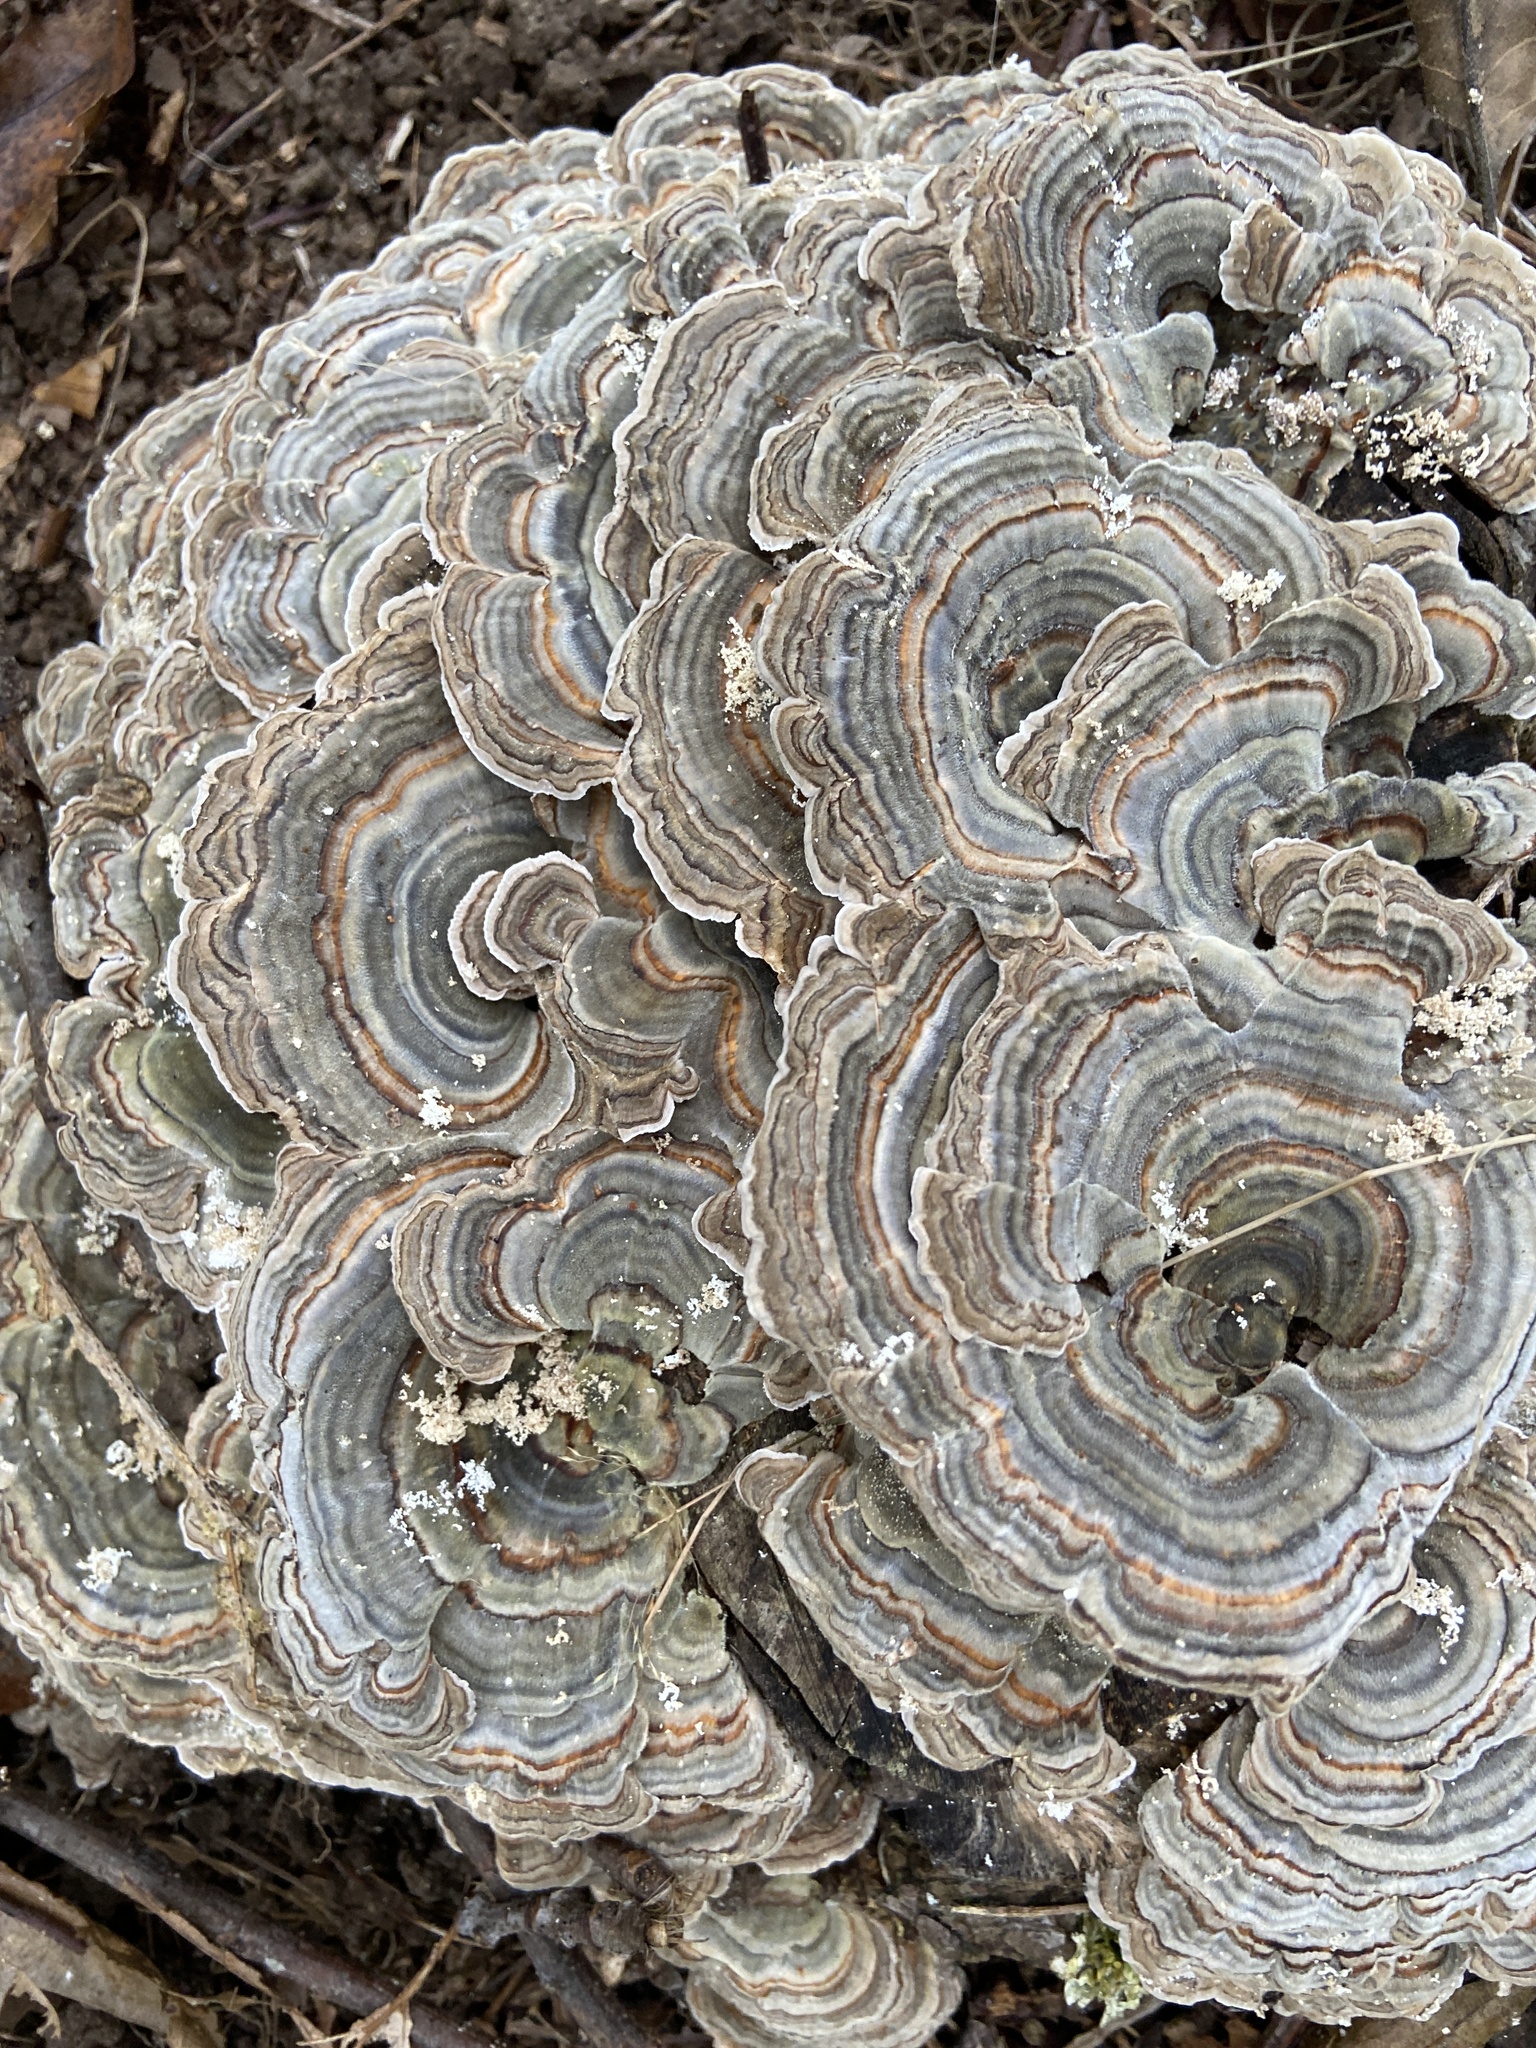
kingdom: Fungi
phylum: Basidiomycota
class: Agaricomycetes
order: Polyporales
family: Polyporaceae
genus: Trametes
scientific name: Trametes versicolor
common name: Turkeytail
